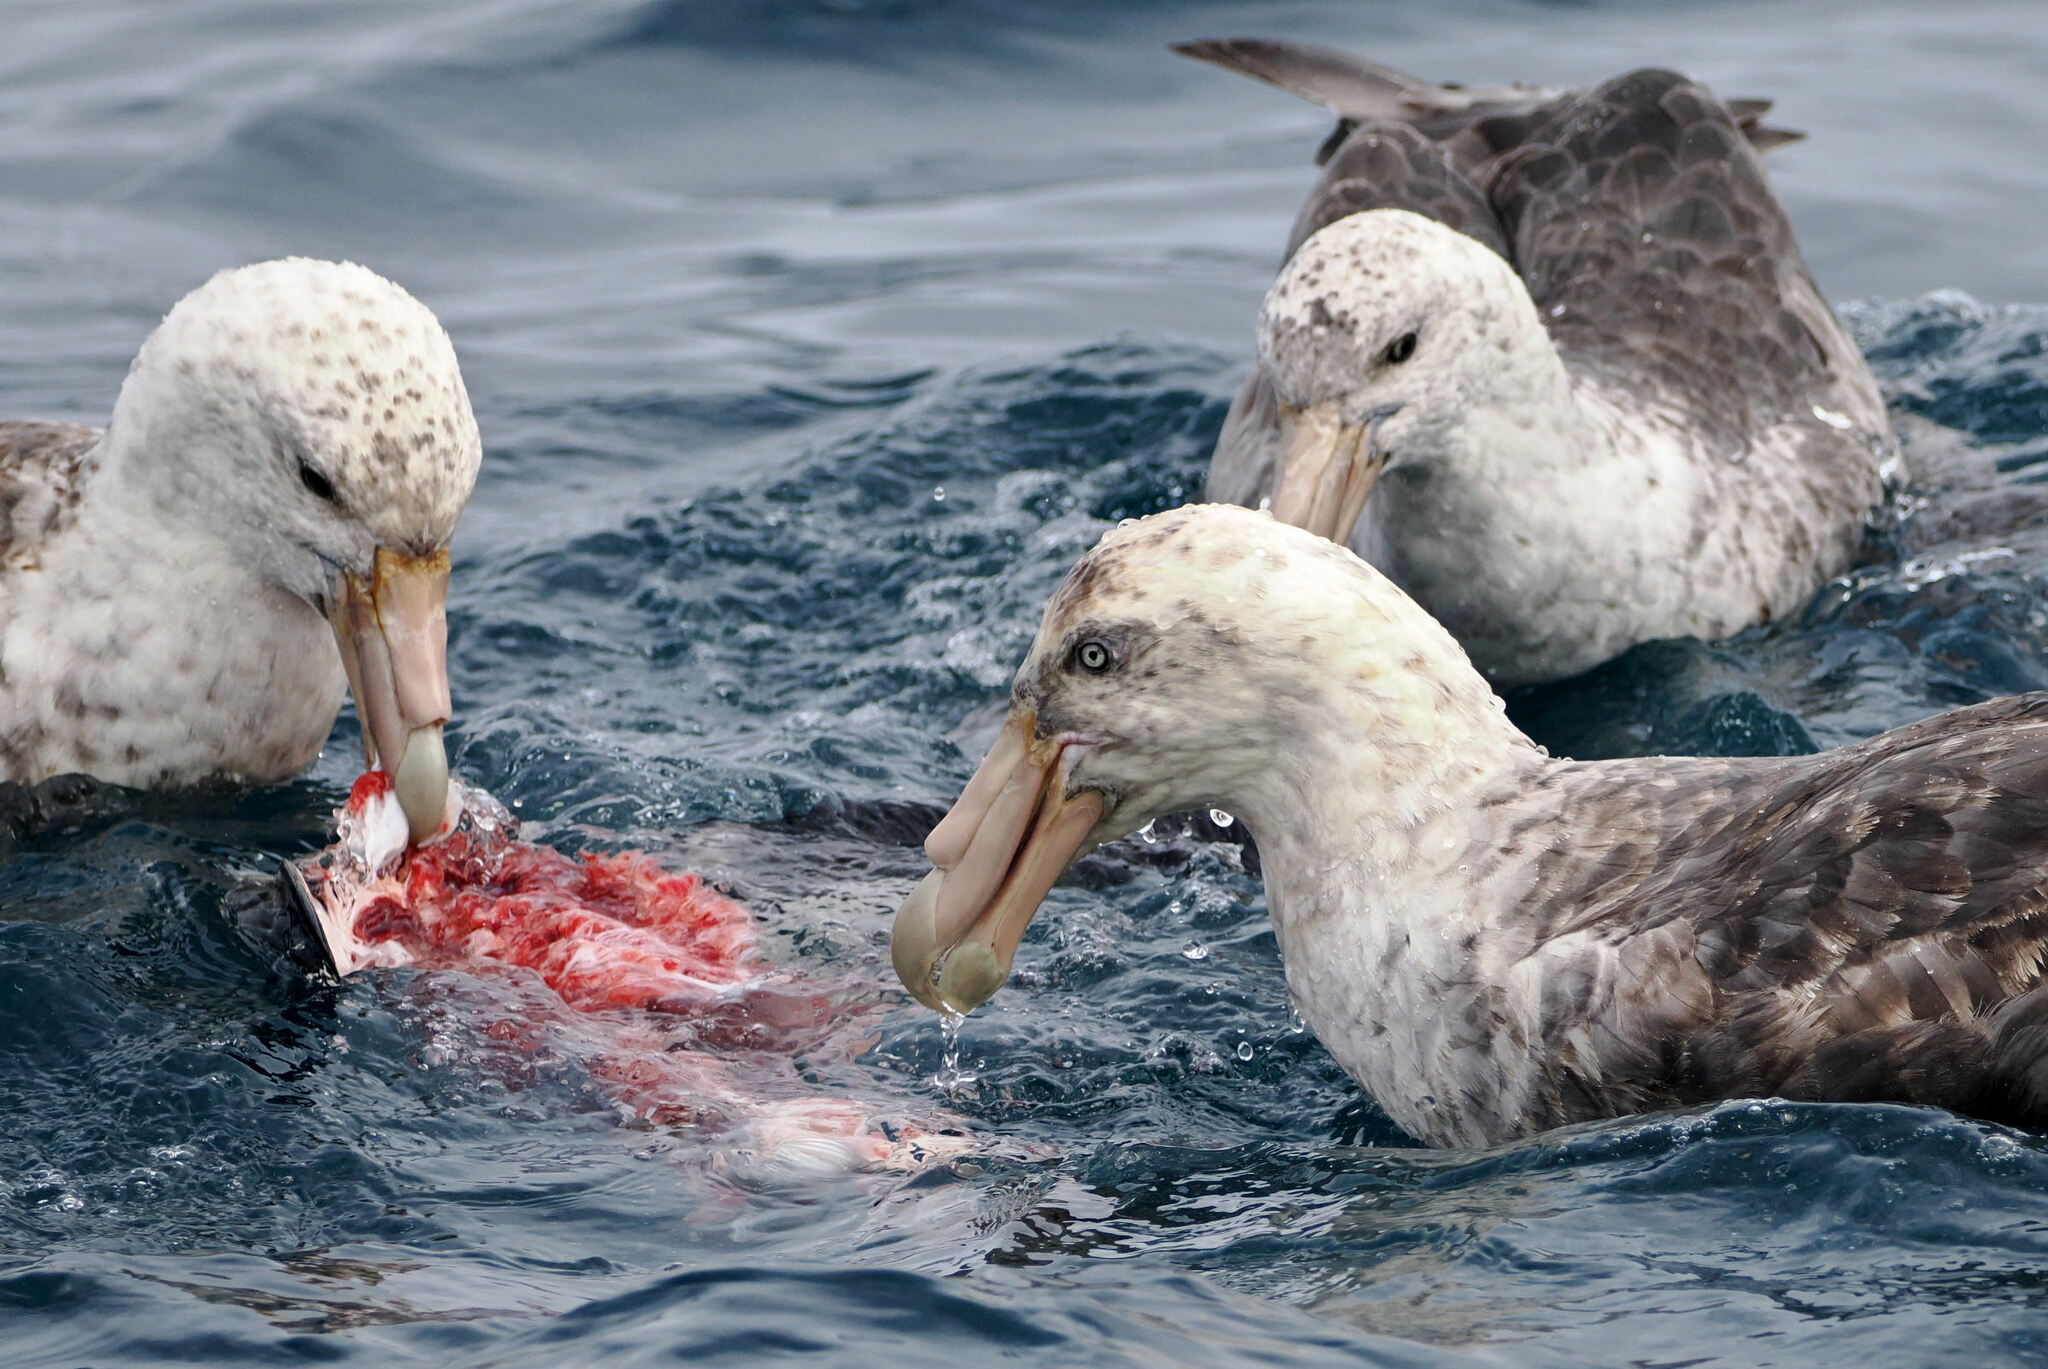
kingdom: Animalia
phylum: Chordata
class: Aves
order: Procellariiformes
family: Procellariidae
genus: Macronectes
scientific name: Macronectes giganteus
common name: Southern giant petrel
